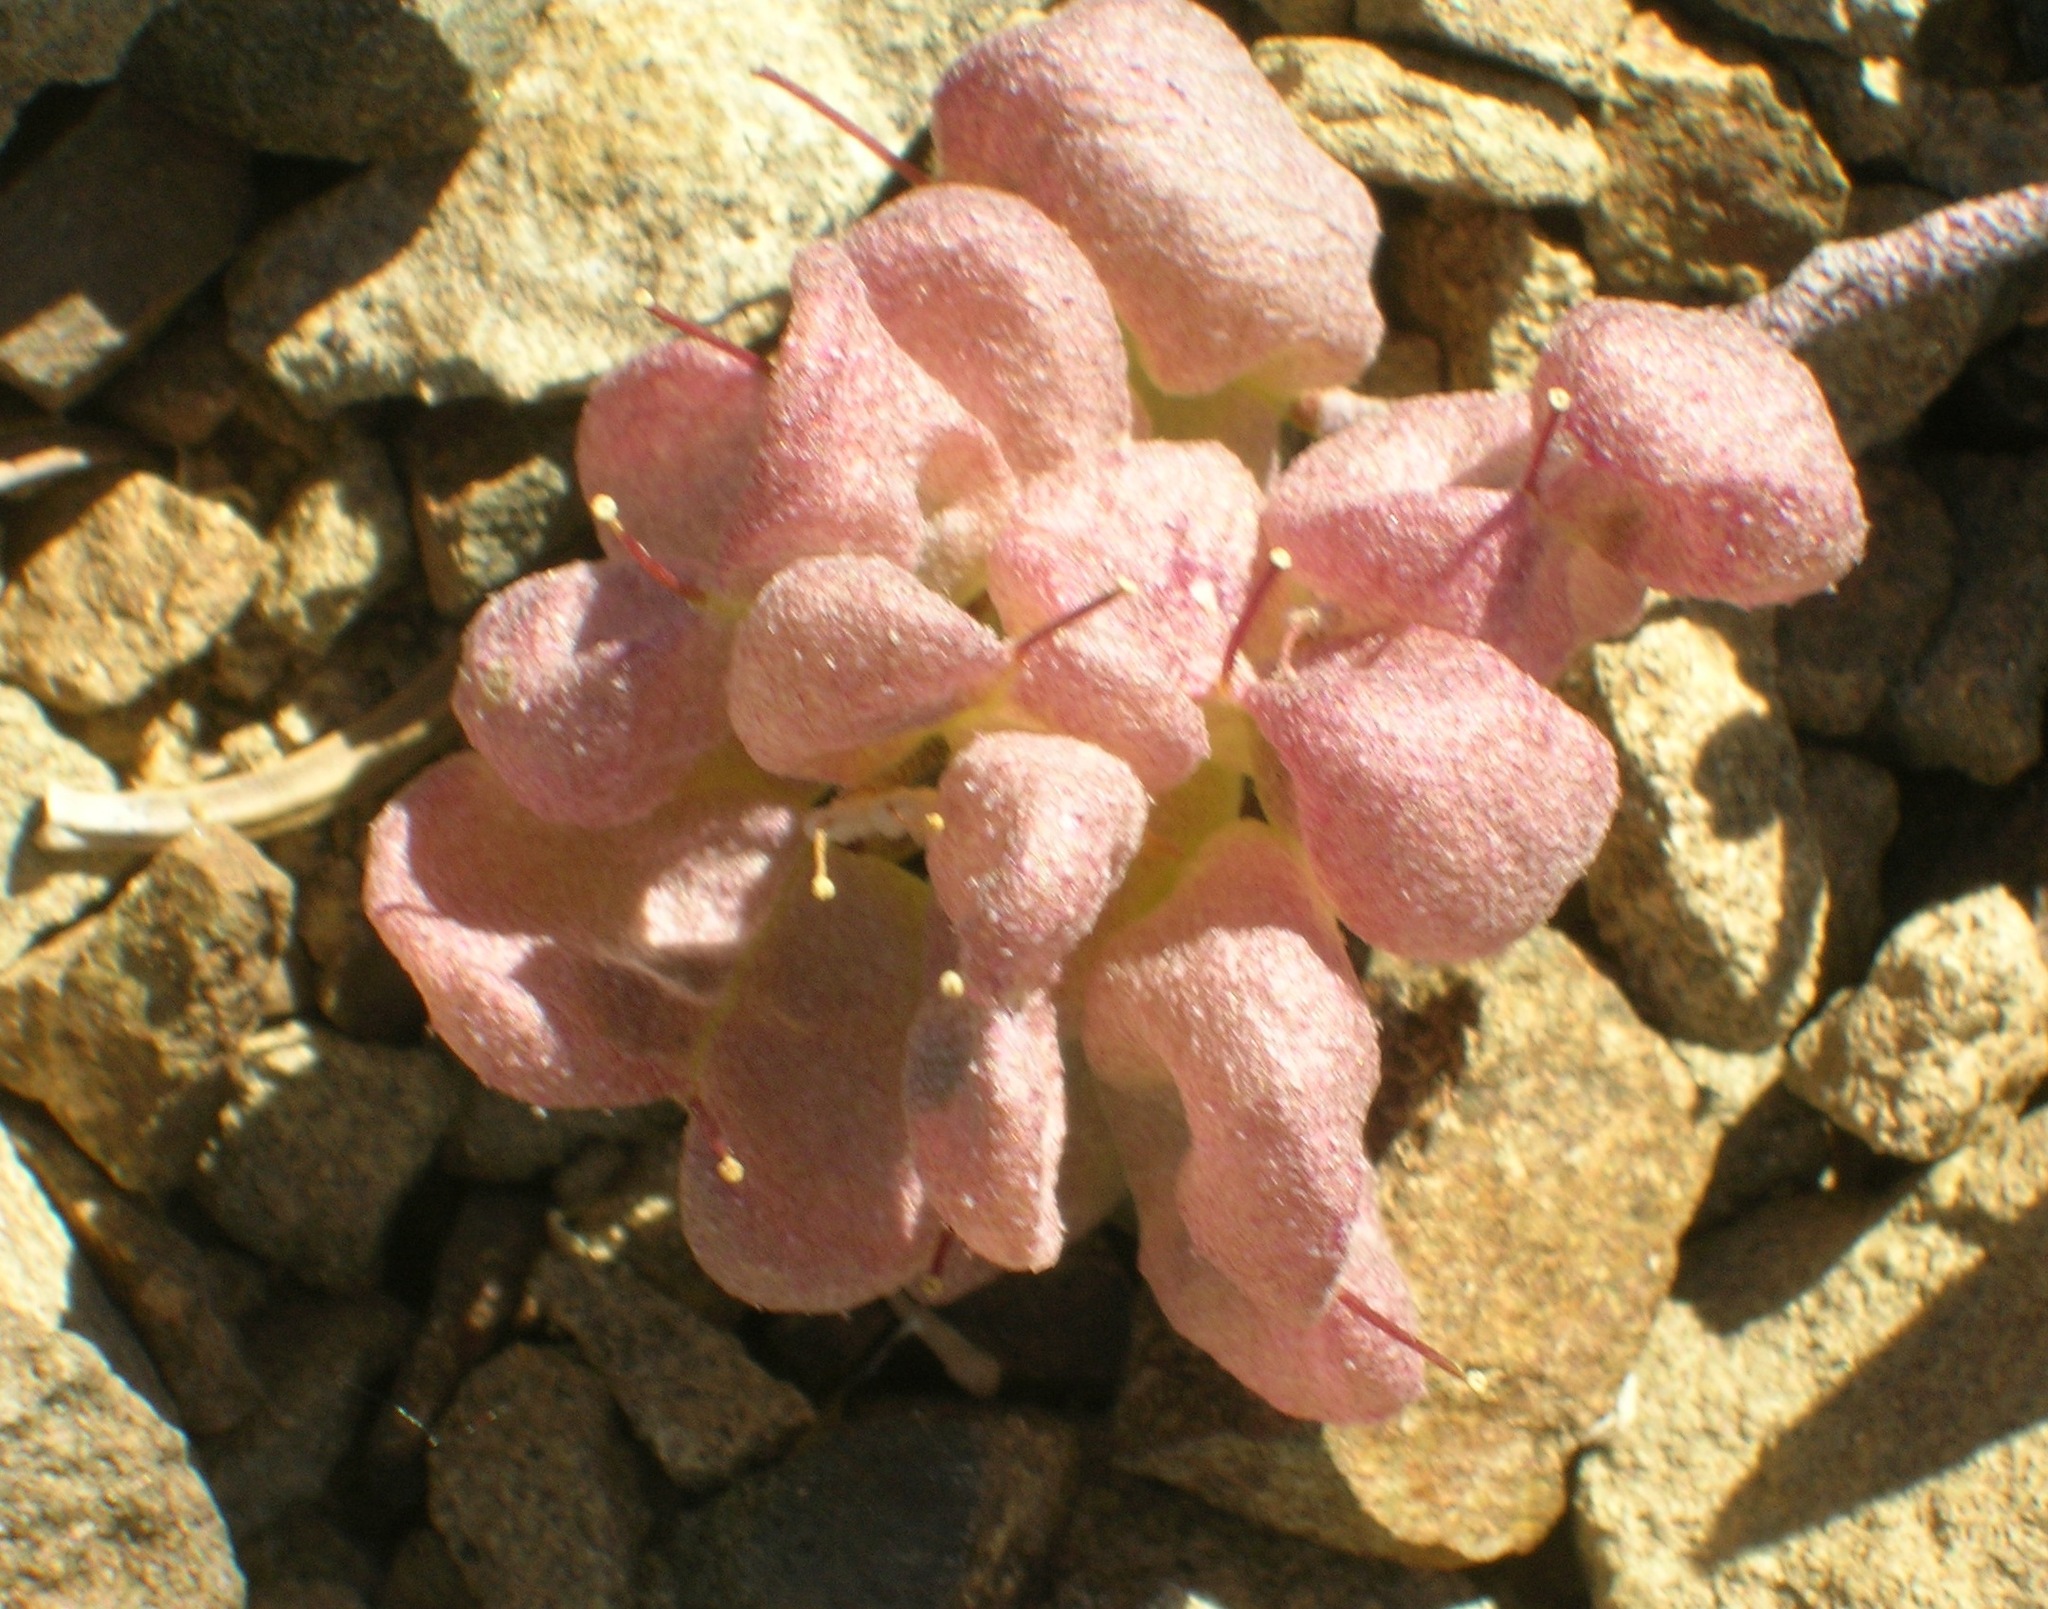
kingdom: Plantae
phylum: Tracheophyta
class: Magnoliopsida
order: Brassicales
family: Brassicaceae
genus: Physaria
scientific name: Physaria alpestris
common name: Washington twinpod
